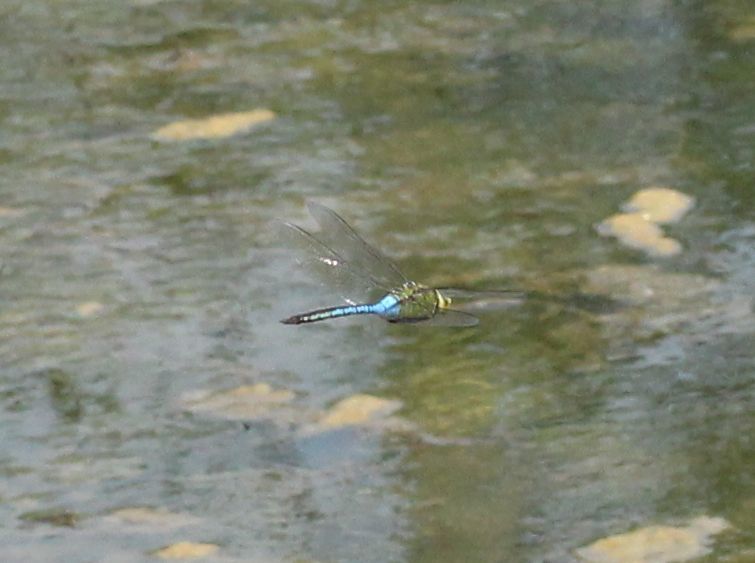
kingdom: Animalia
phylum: Arthropoda
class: Insecta
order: Odonata
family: Aeshnidae
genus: Anax
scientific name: Anax junius
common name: Common green darner
